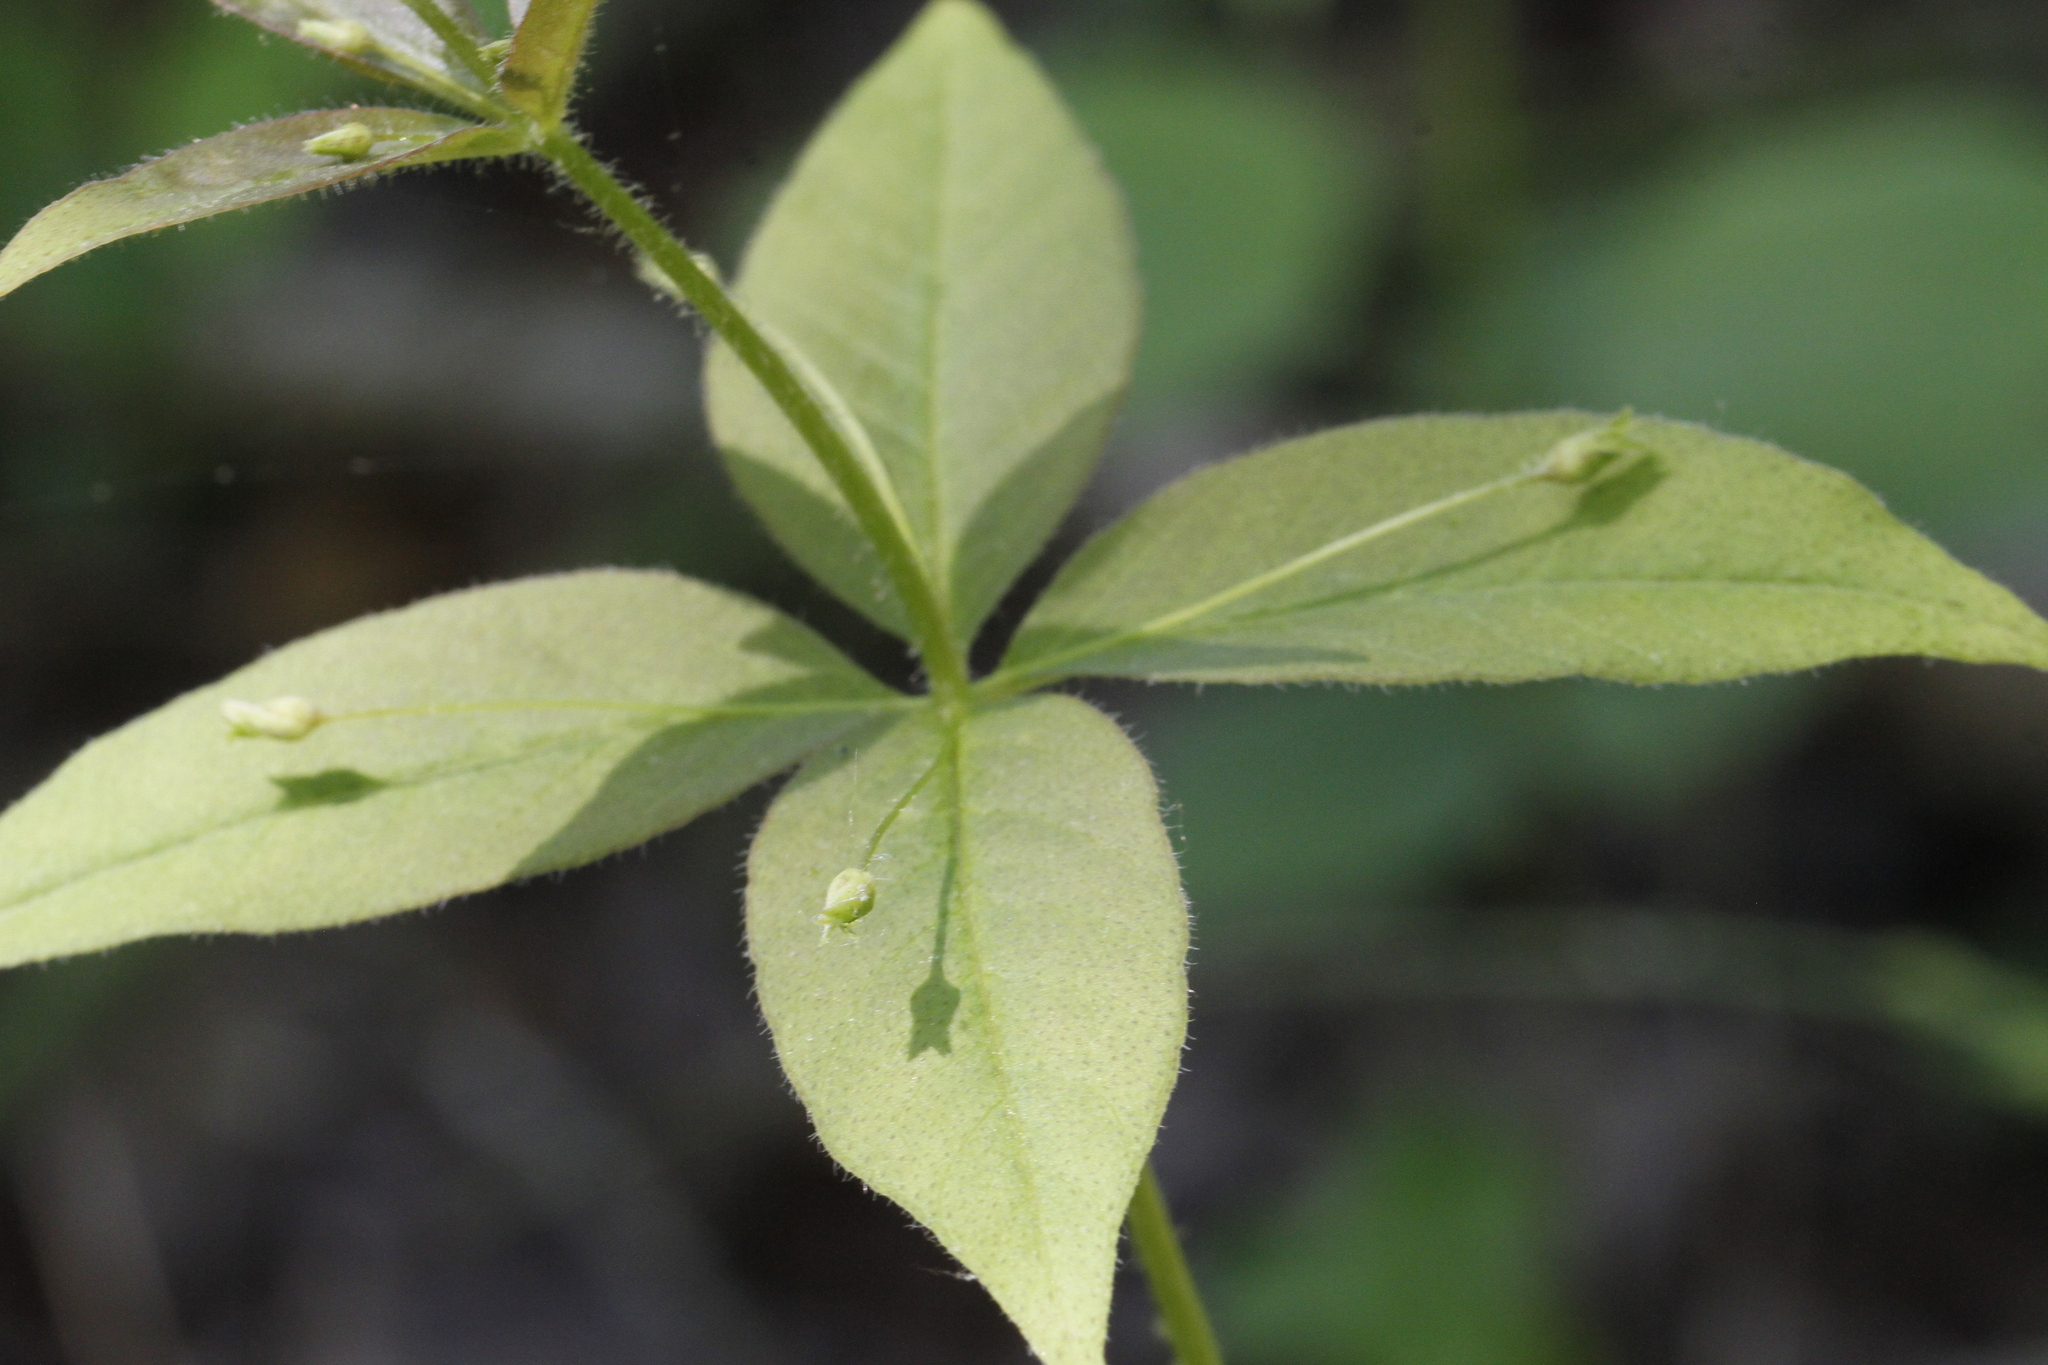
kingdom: Plantae
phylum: Tracheophyta
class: Magnoliopsida
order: Ericales
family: Primulaceae
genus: Lysimachia
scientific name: Lysimachia quadrifolia
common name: Whorled loosestrife
